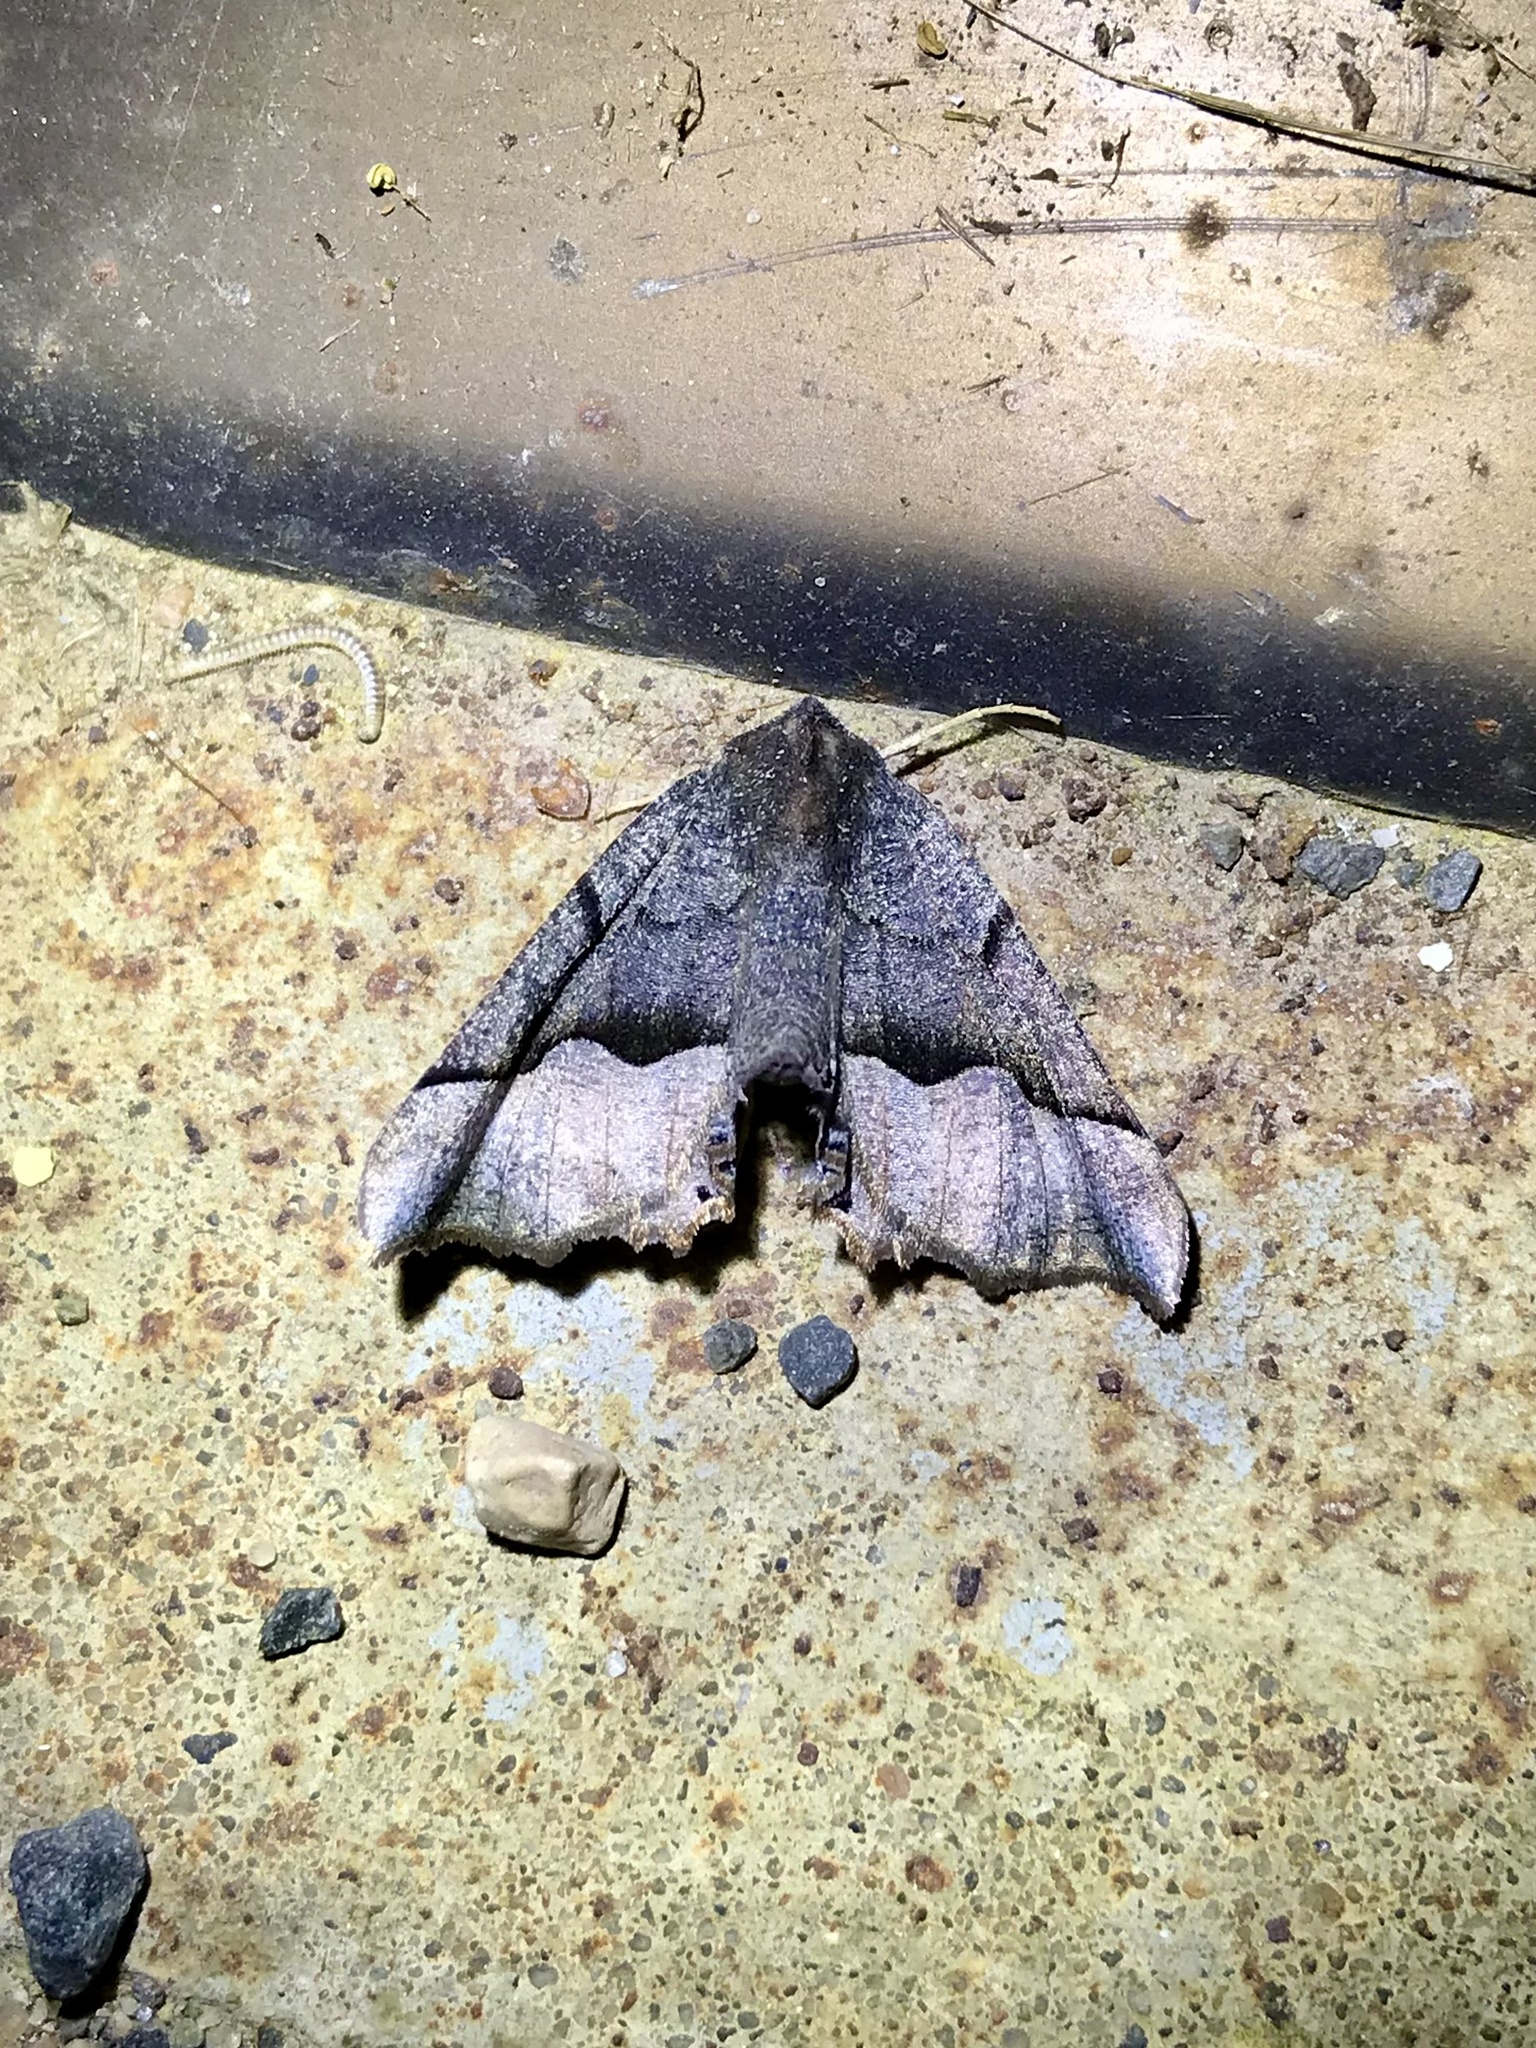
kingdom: Animalia
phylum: Arthropoda
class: Insecta
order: Lepidoptera
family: Geometridae
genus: Pero
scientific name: Pero honestaria
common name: Honest pero
